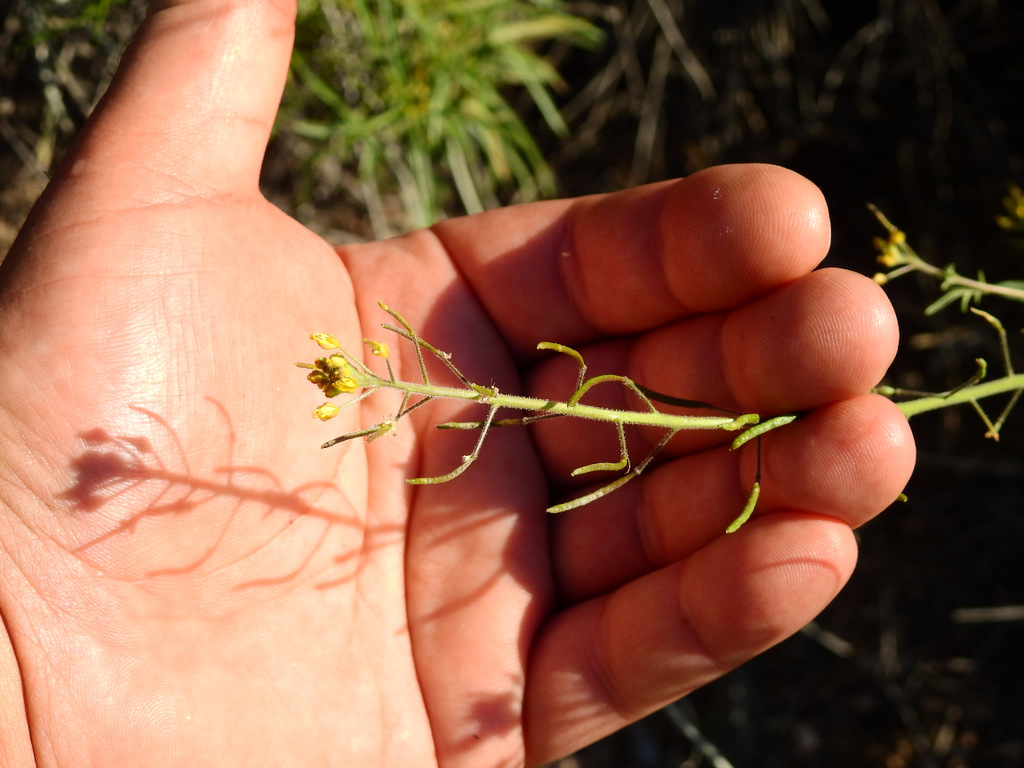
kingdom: Plantae
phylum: Tracheophyta
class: Magnoliopsida
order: Brassicales
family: Brassicaceae
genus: Descurainia
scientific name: Descurainia erodiifolia
